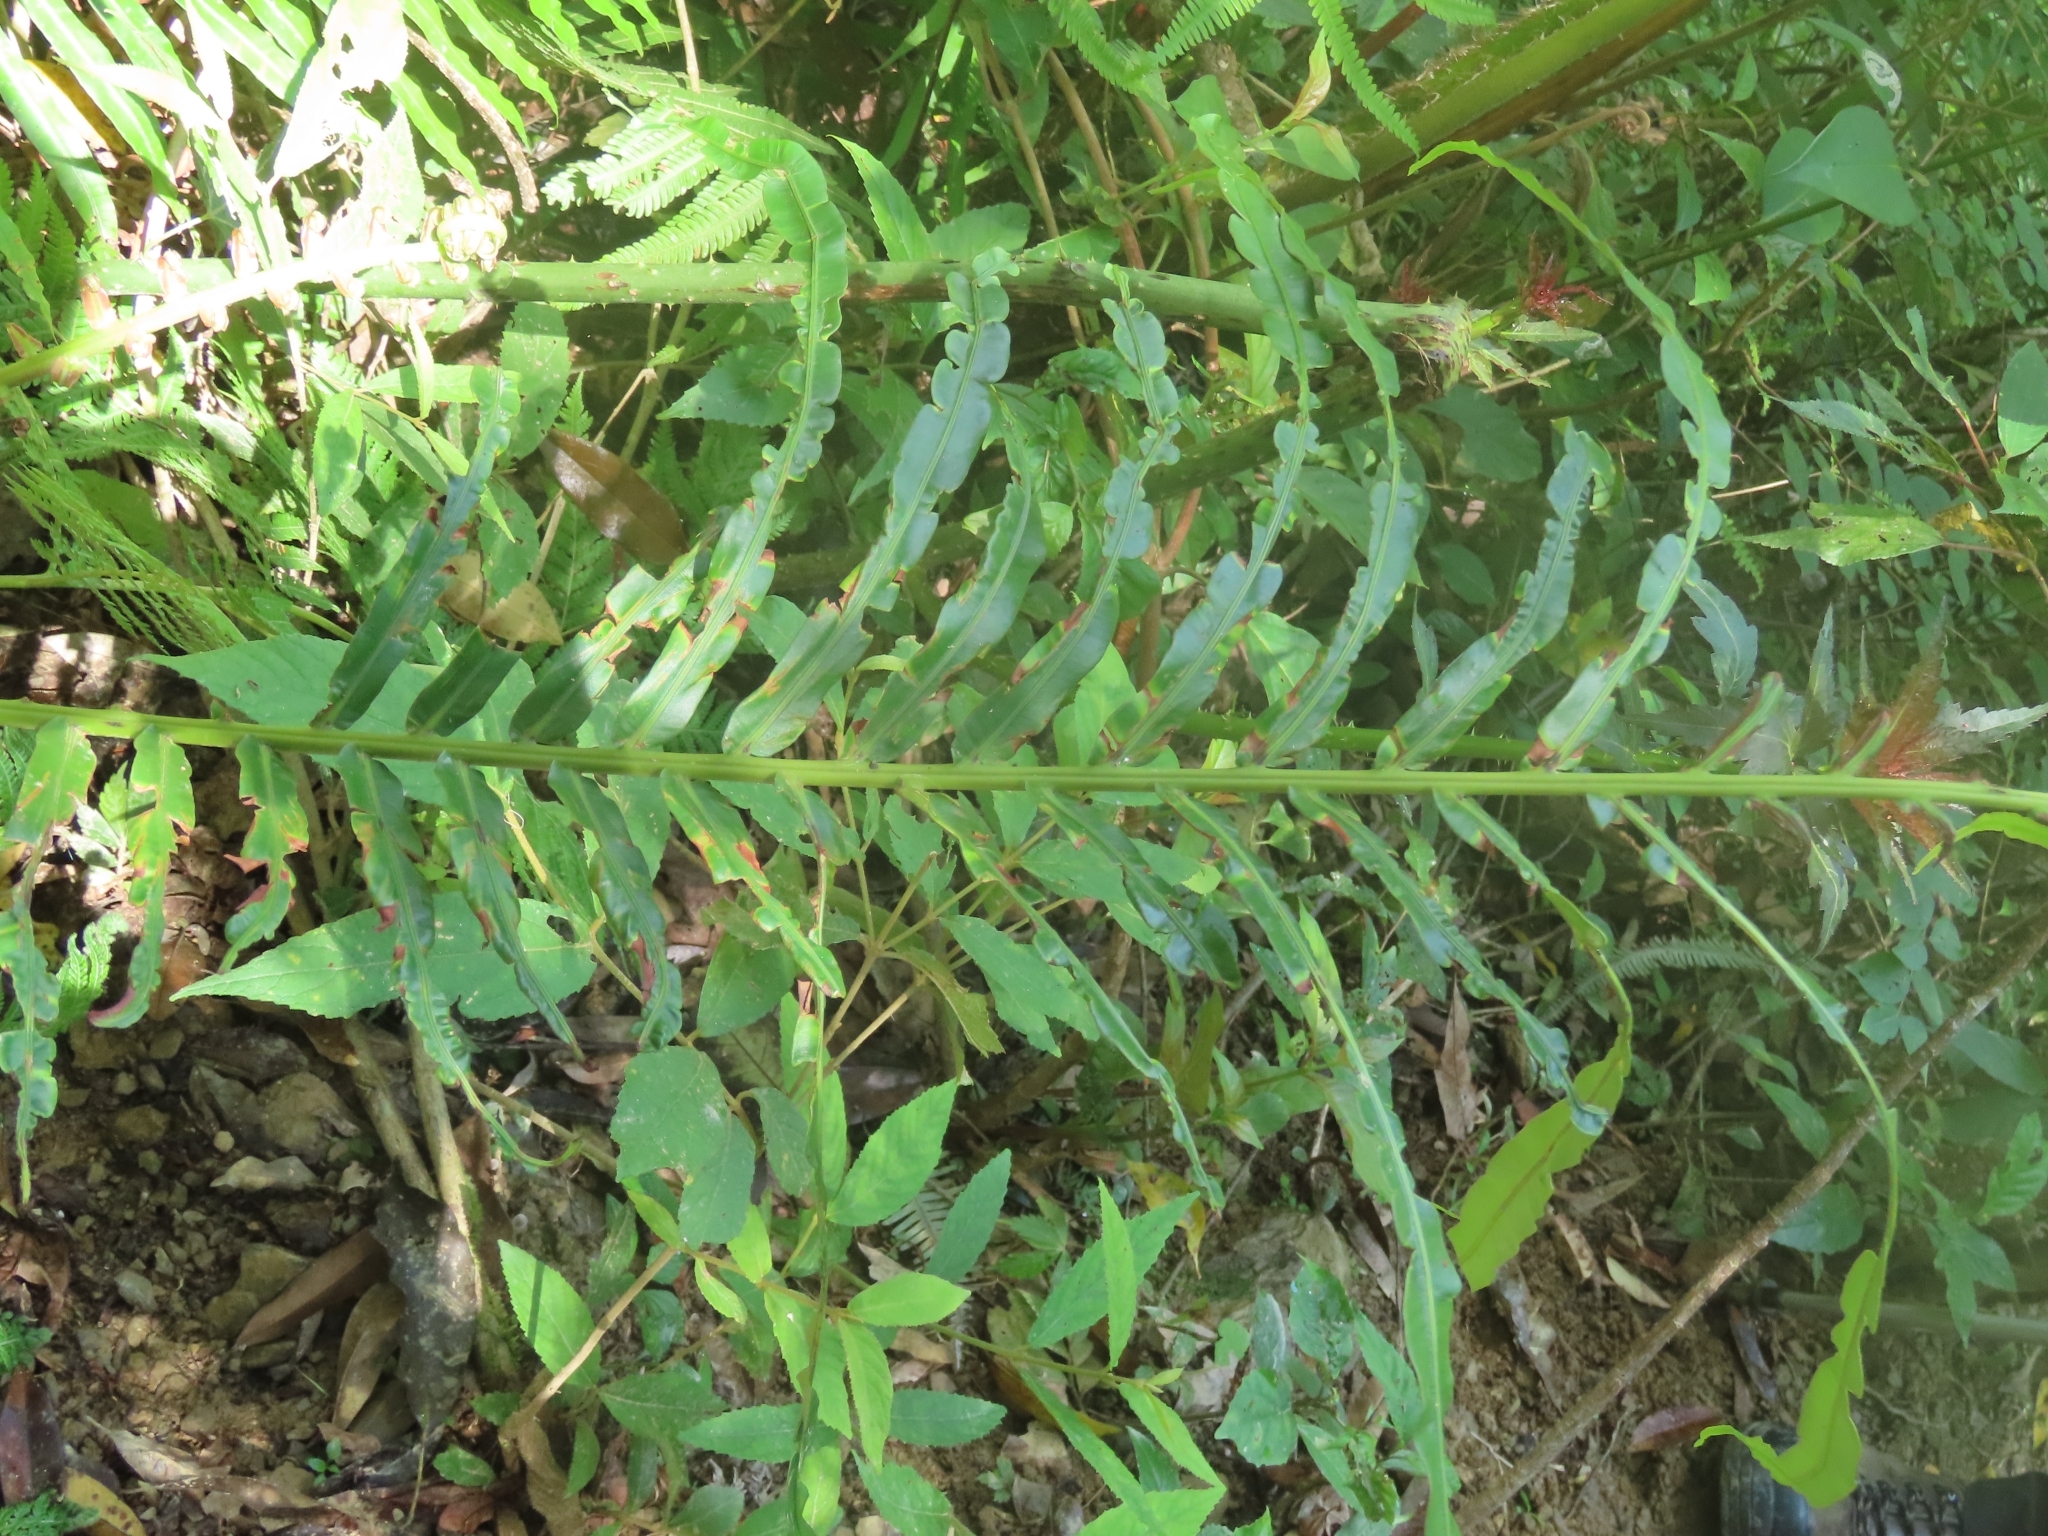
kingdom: Plantae
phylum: Tracheophyta
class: Polypodiopsida
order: Polypodiales
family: Blechnaceae
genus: Blechnopsis
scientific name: Blechnopsis orientalis
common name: Oriental blechnum
